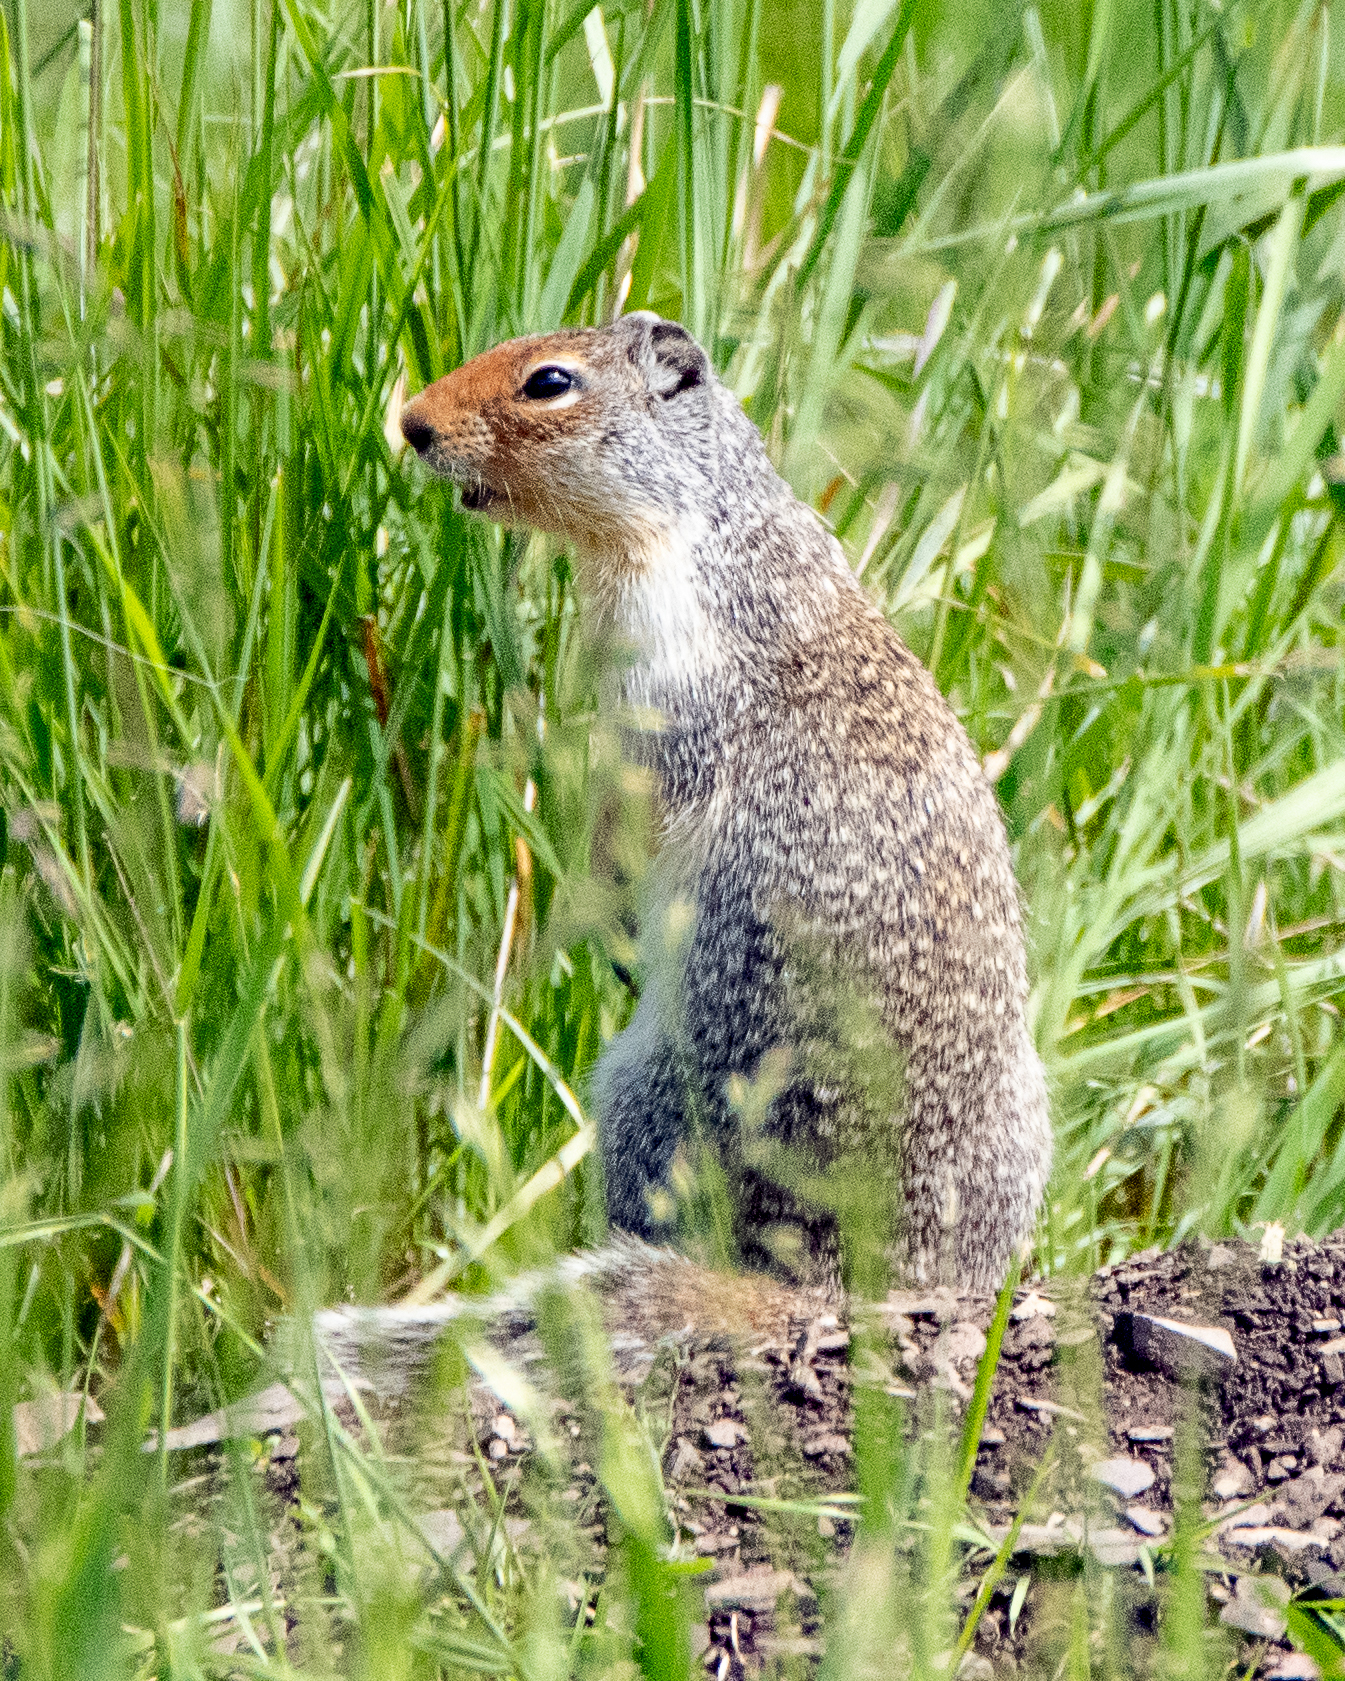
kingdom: Animalia
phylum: Chordata
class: Mammalia
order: Rodentia
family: Sciuridae
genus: Urocitellus
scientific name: Urocitellus columbianus
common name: Columbian ground squirrel
